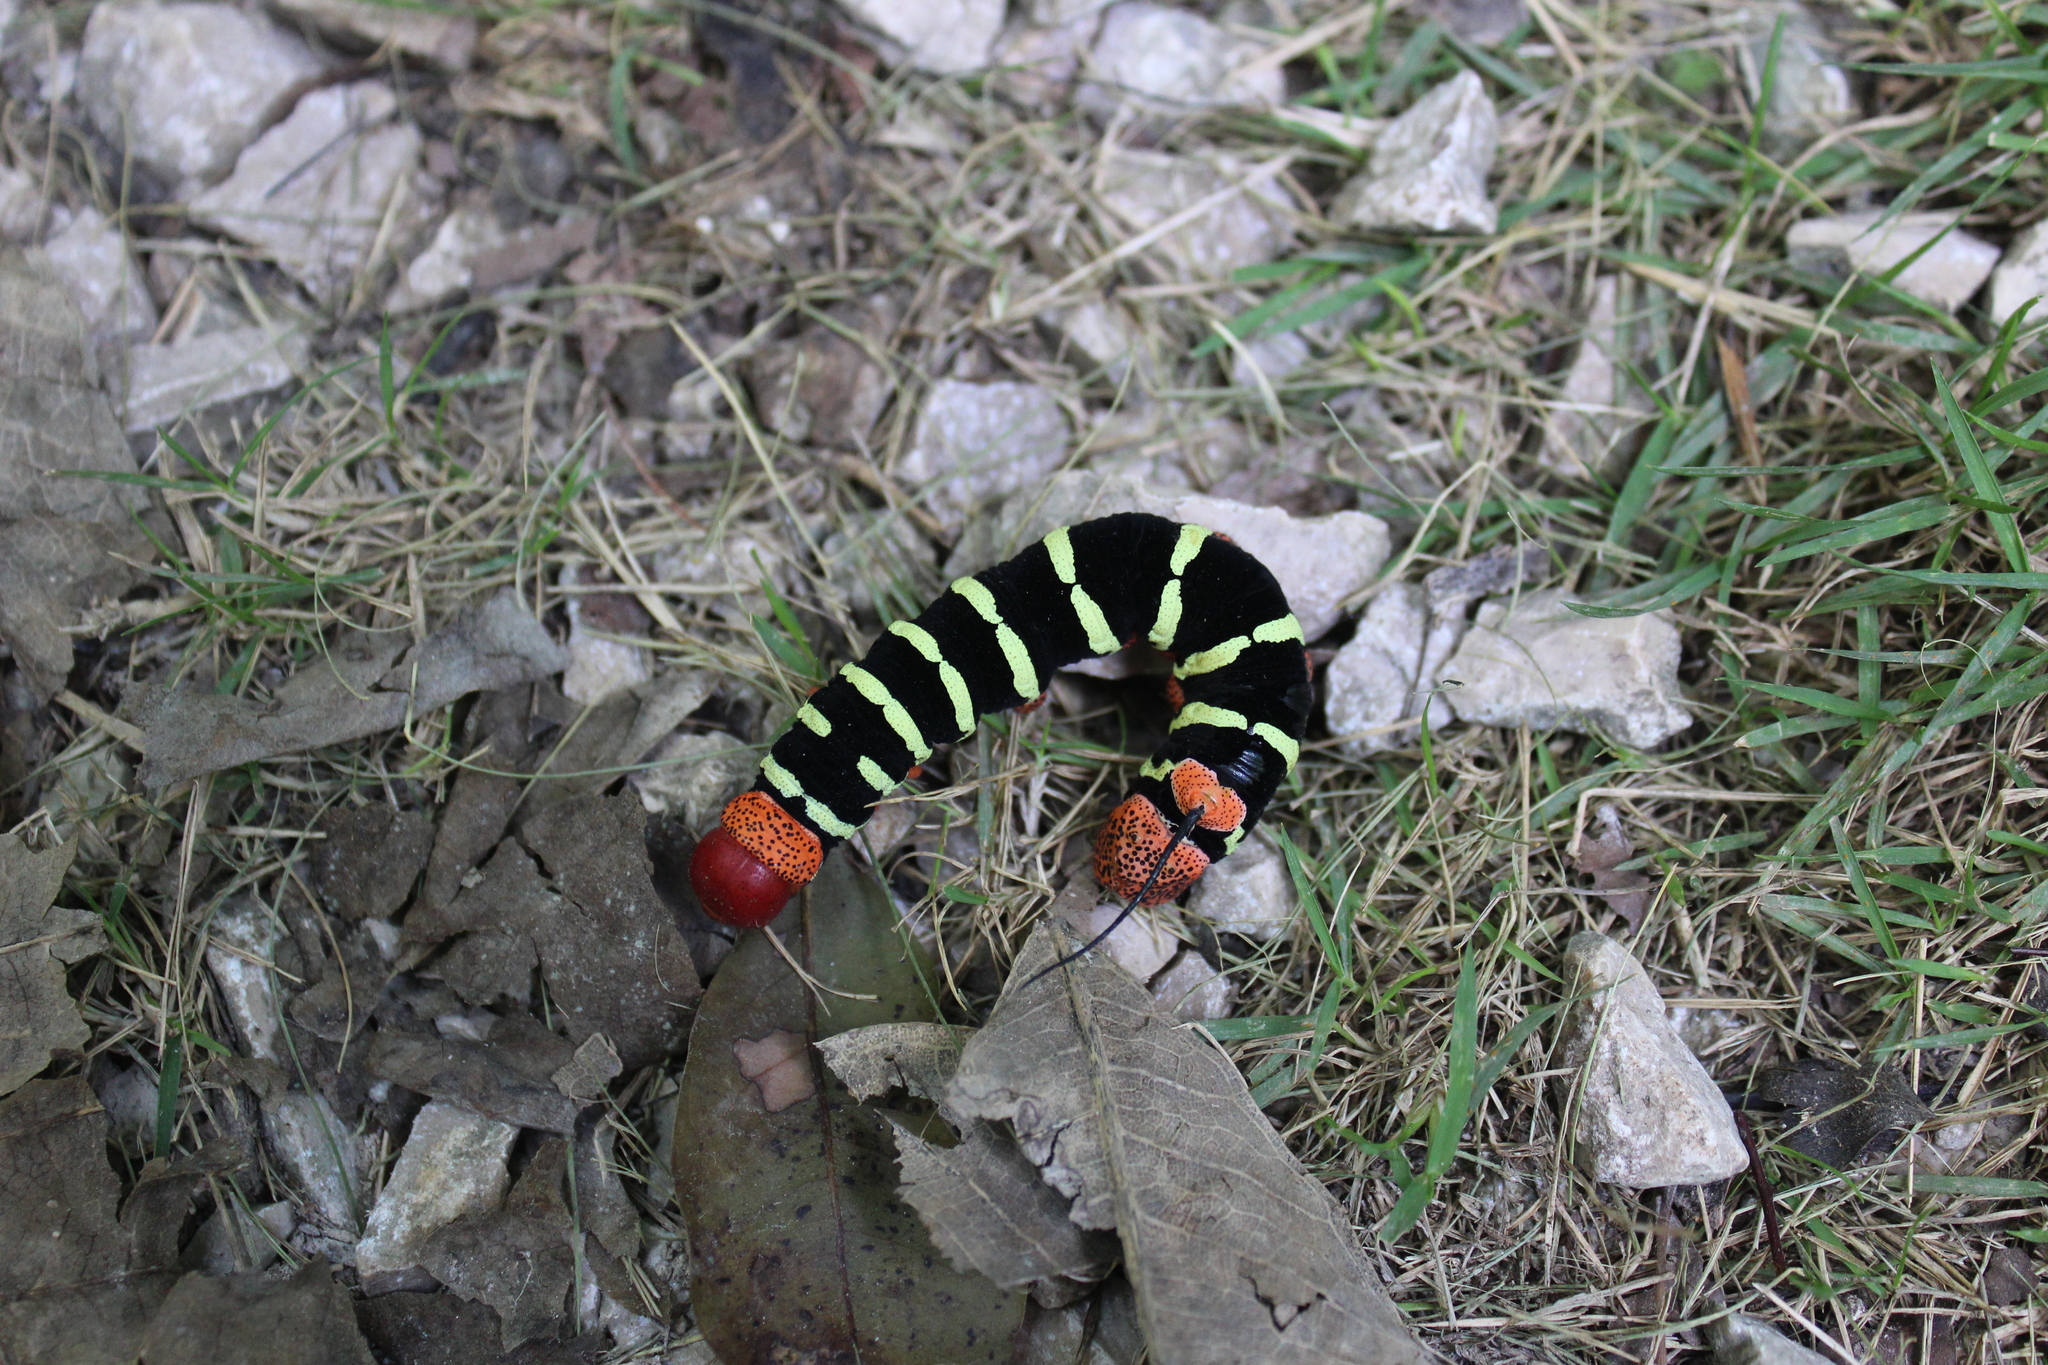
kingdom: Animalia
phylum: Arthropoda
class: Insecta
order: Lepidoptera
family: Sphingidae
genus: Pseudosphinx
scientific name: Pseudosphinx tetrio
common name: Tetrio sphinx
